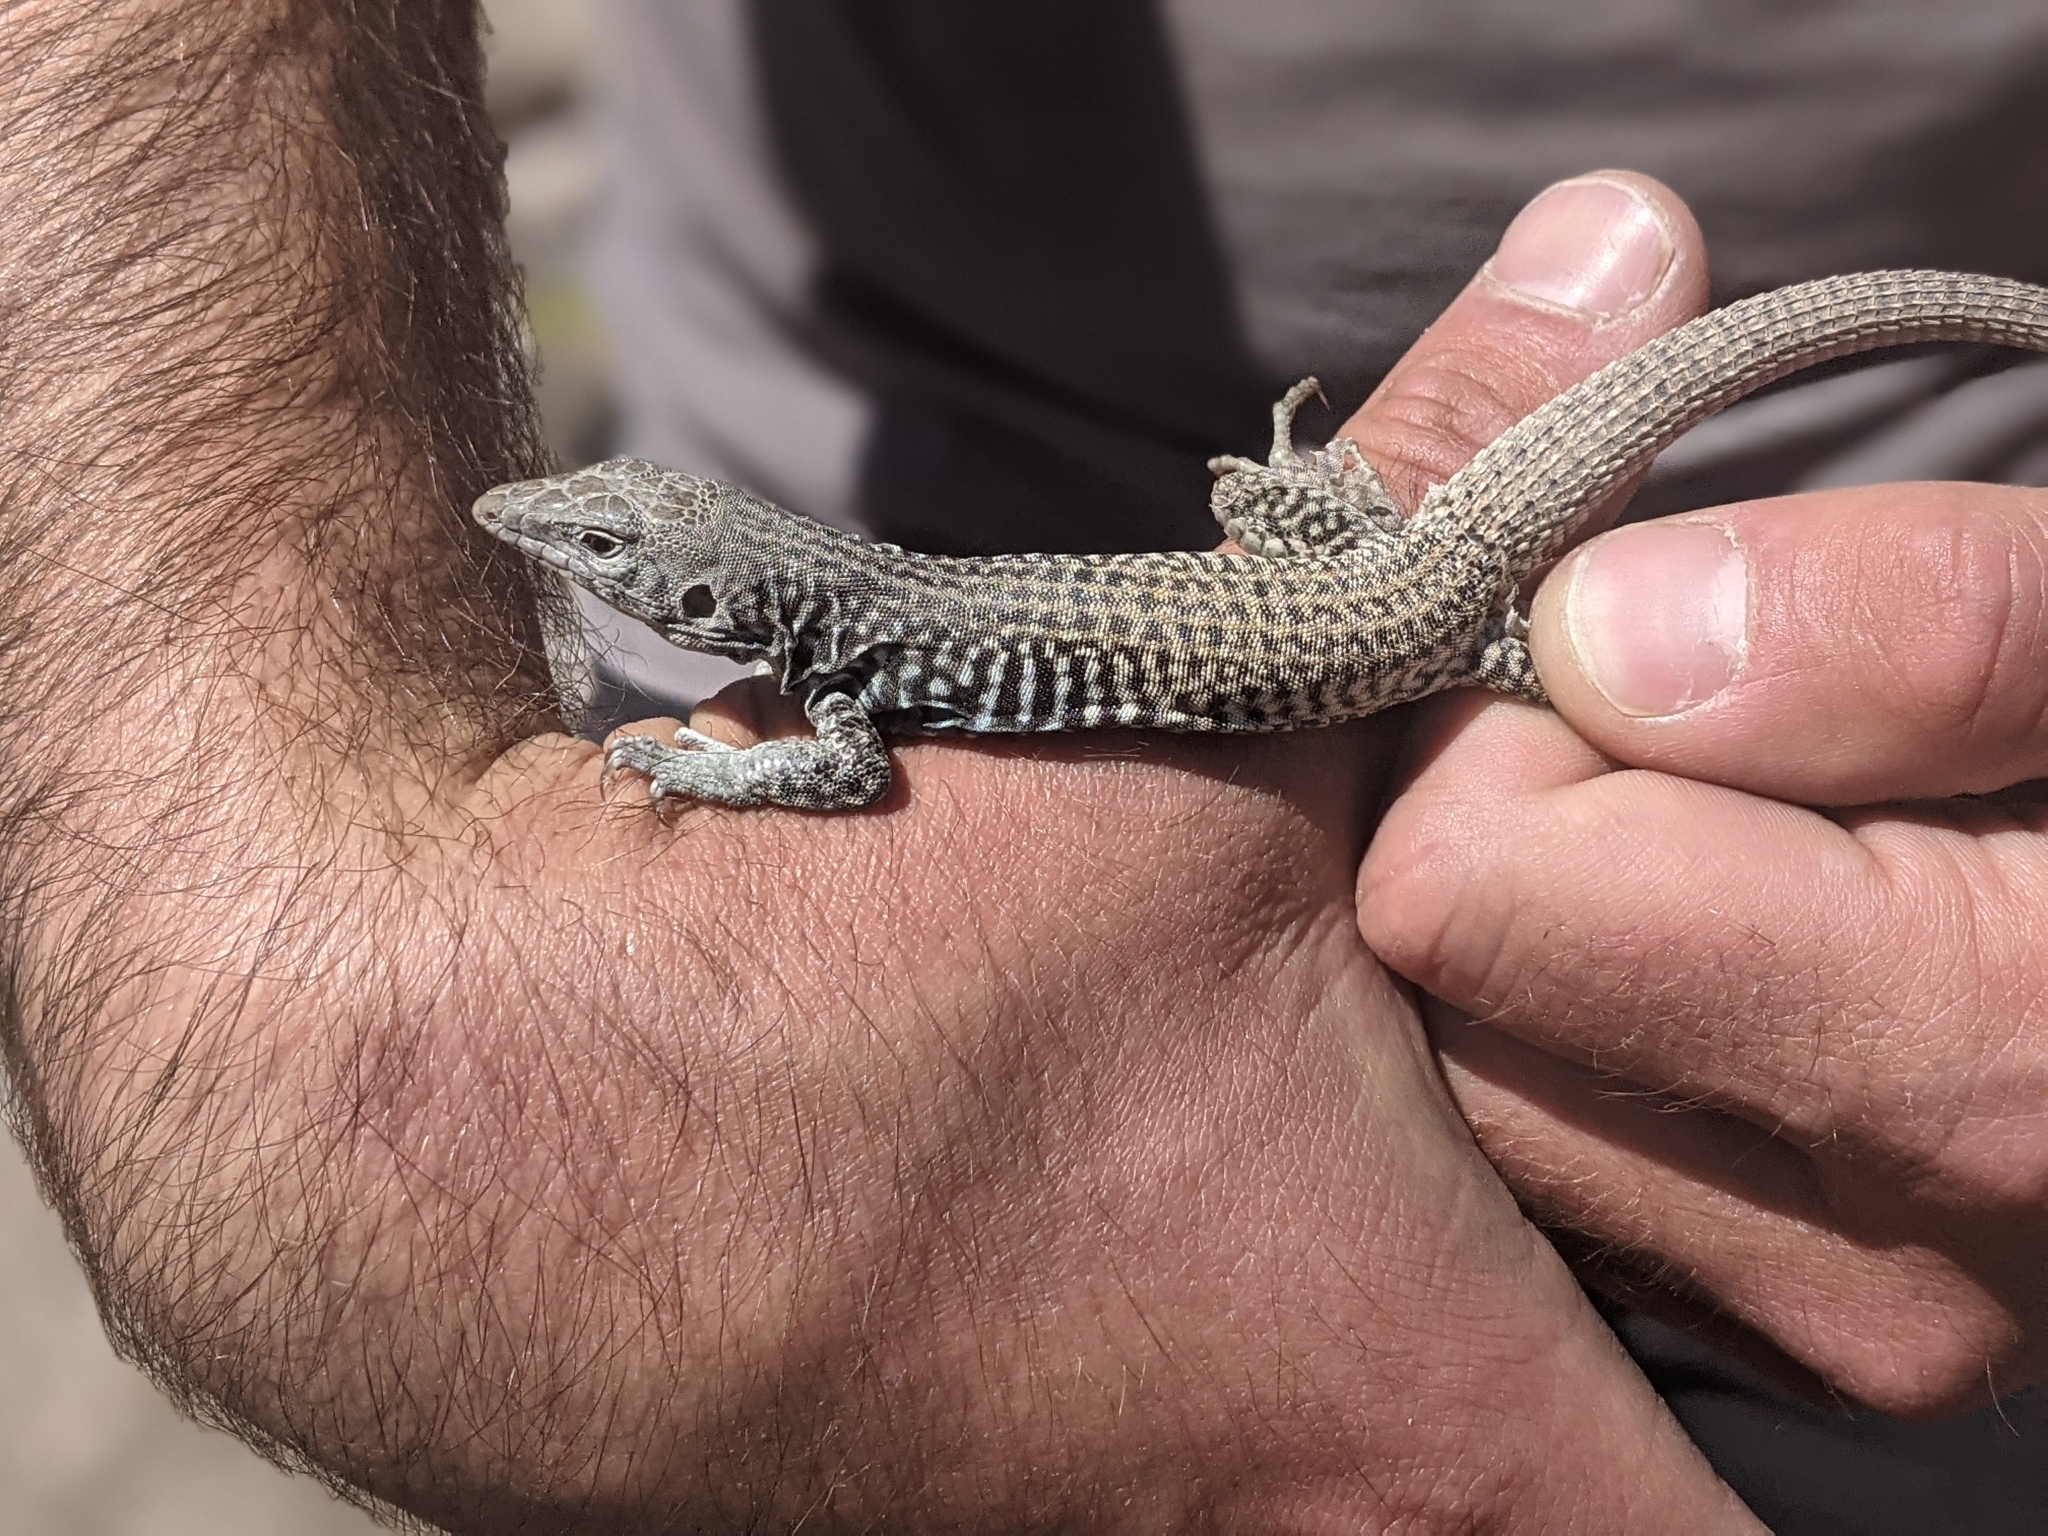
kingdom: Animalia
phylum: Chordata
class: Squamata
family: Teiidae
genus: Aspidoscelis
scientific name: Aspidoscelis tigris
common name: Tiger whiptail
